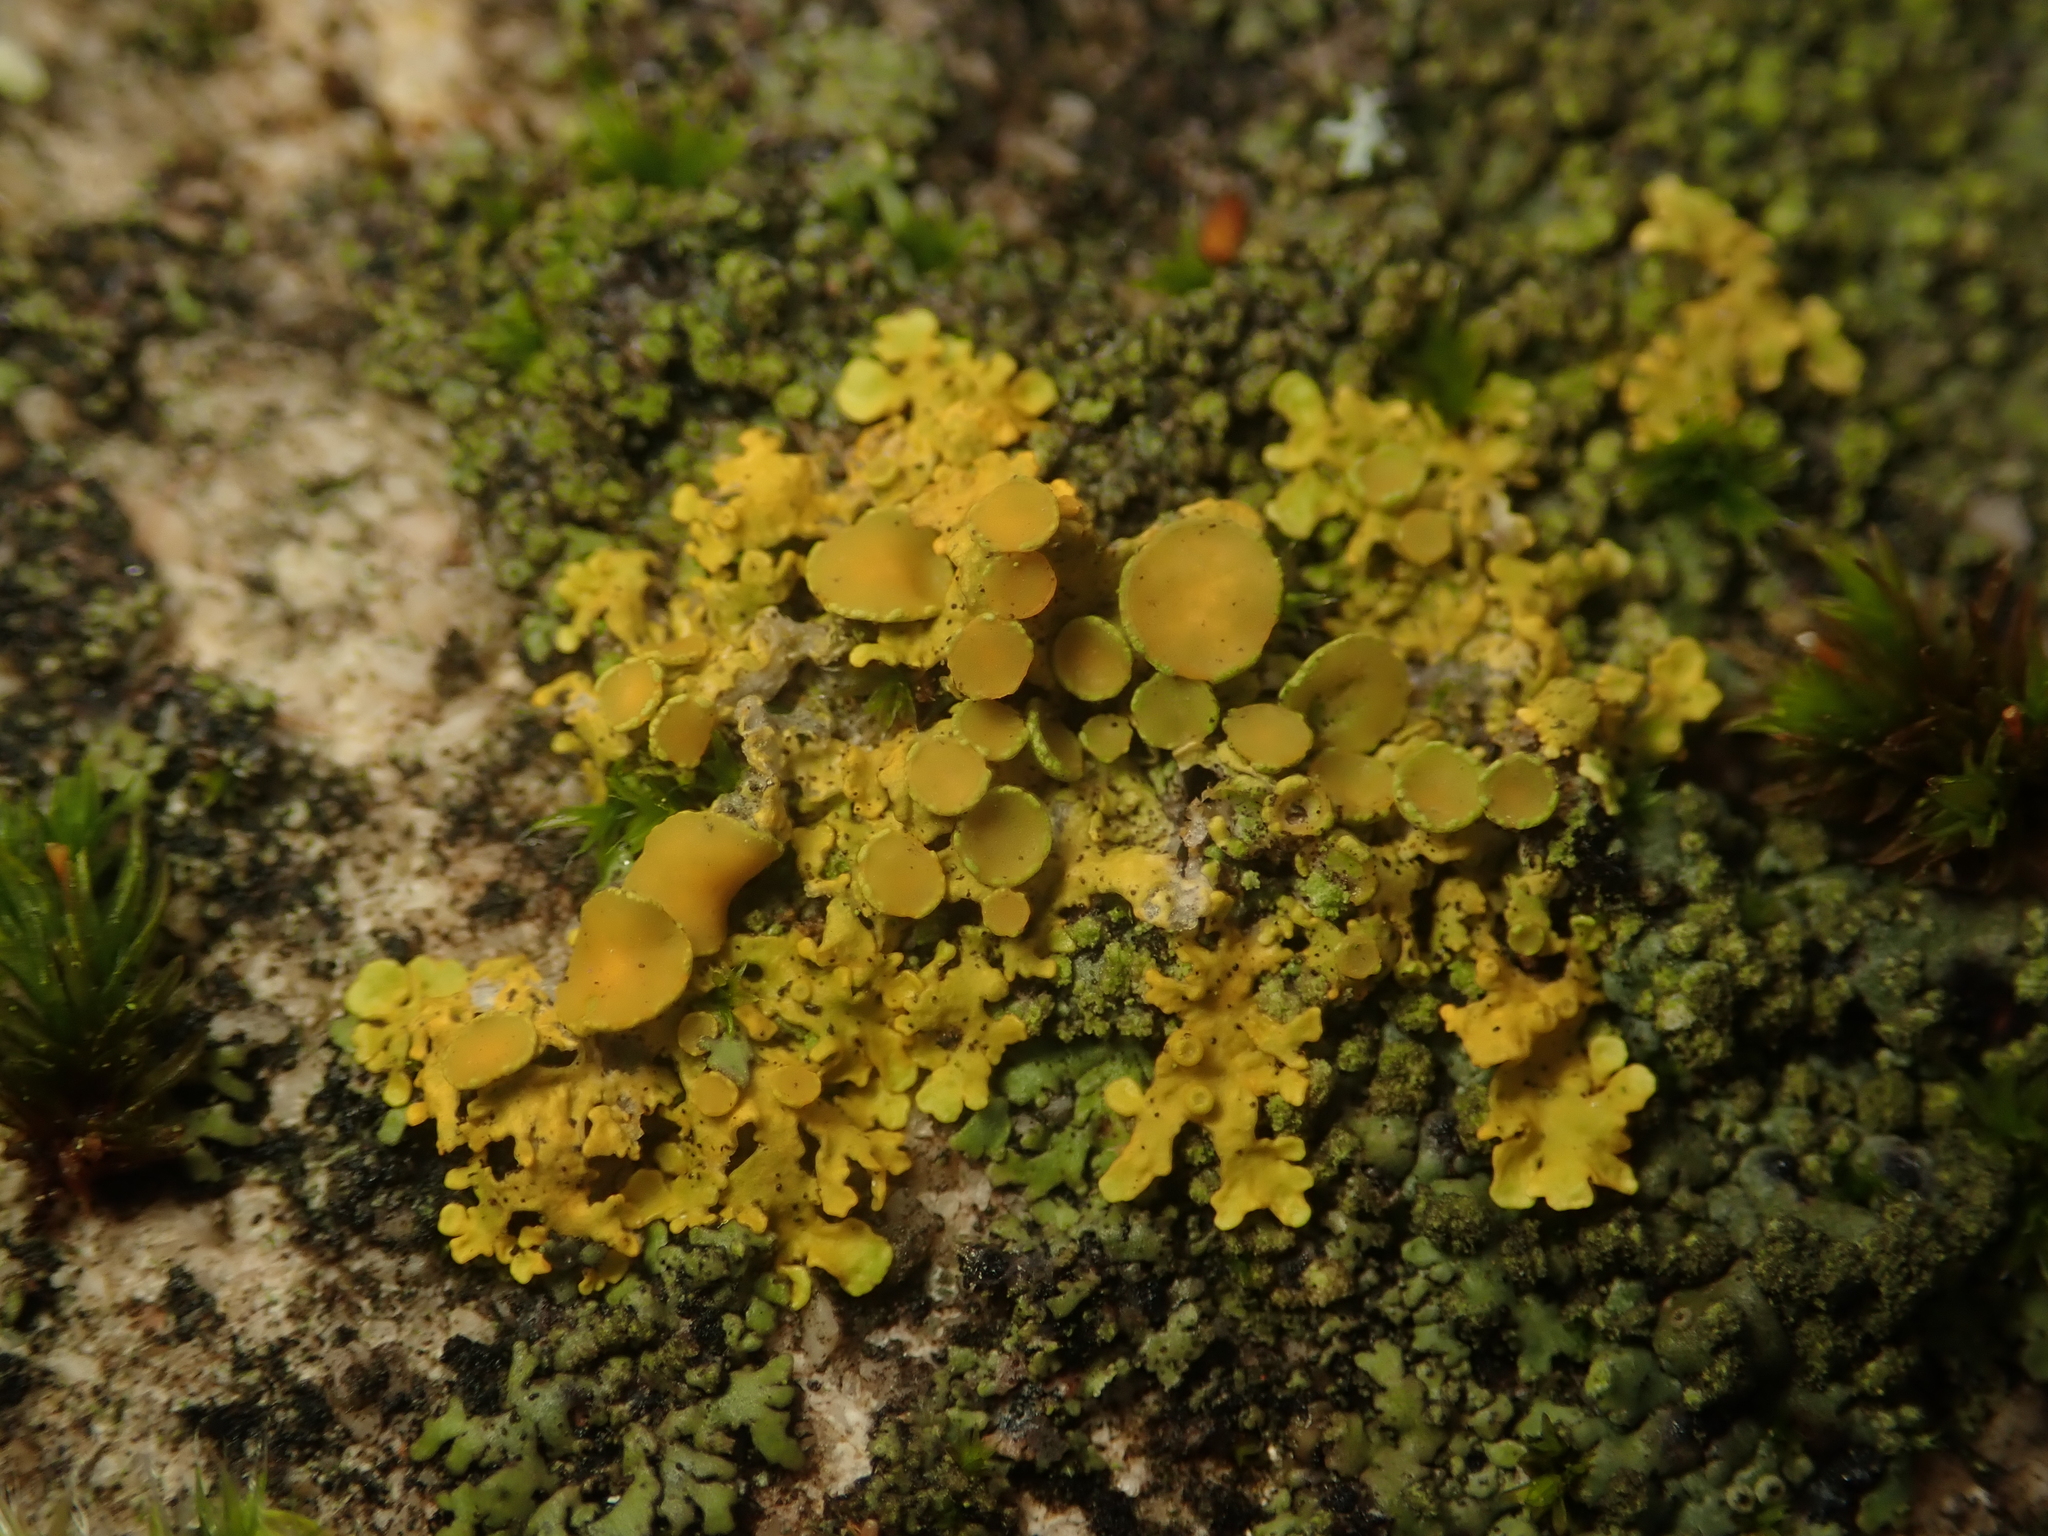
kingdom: Fungi
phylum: Ascomycota
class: Lecanoromycetes
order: Teloschistales
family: Teloschistaceae
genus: Xanthoria
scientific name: Xanthoria parietina
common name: Common orange lichen
